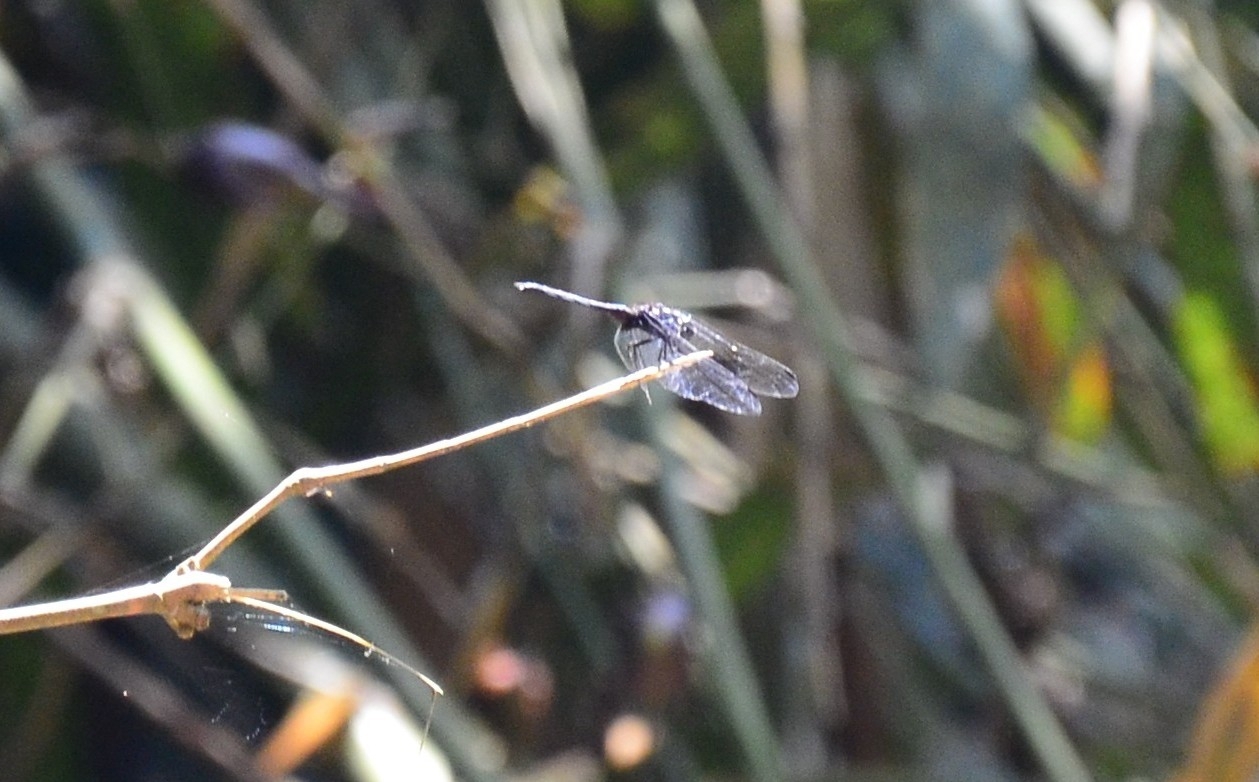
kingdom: Animalia
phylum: Arthropoda
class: Insecta
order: Odonata
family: Libellulidae
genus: Trithemis
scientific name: Trithemis festiva
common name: Indigo dropwing
